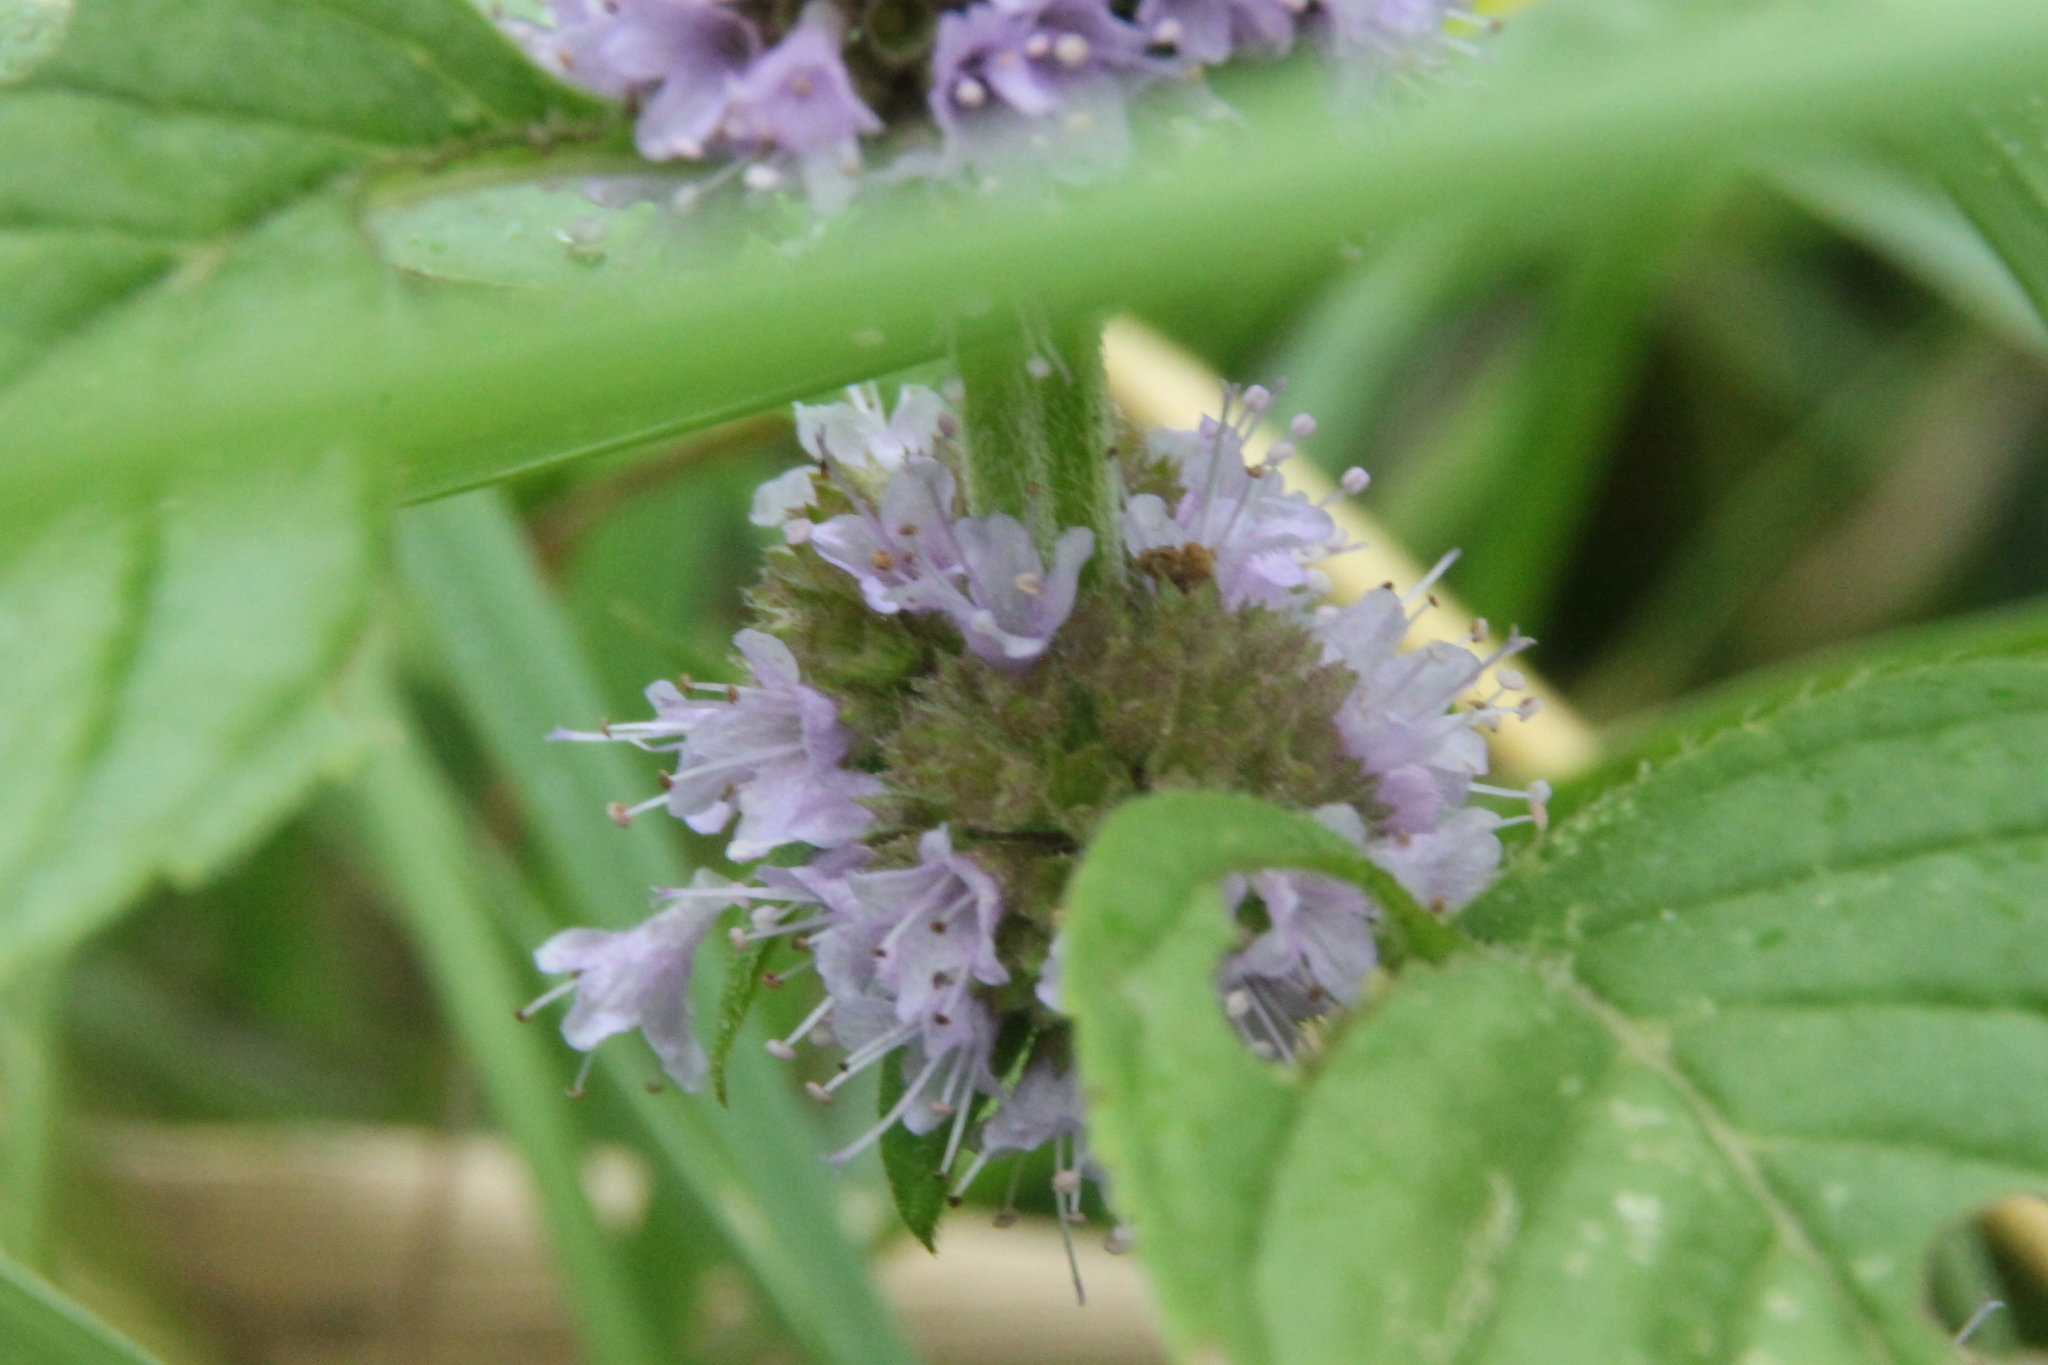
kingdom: Plantae
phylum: Tracheophyta
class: Magnoliopsida
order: Lamiales
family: Lamiaceae
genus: Mentha
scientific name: Mentha arvensis
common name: Corn mint
